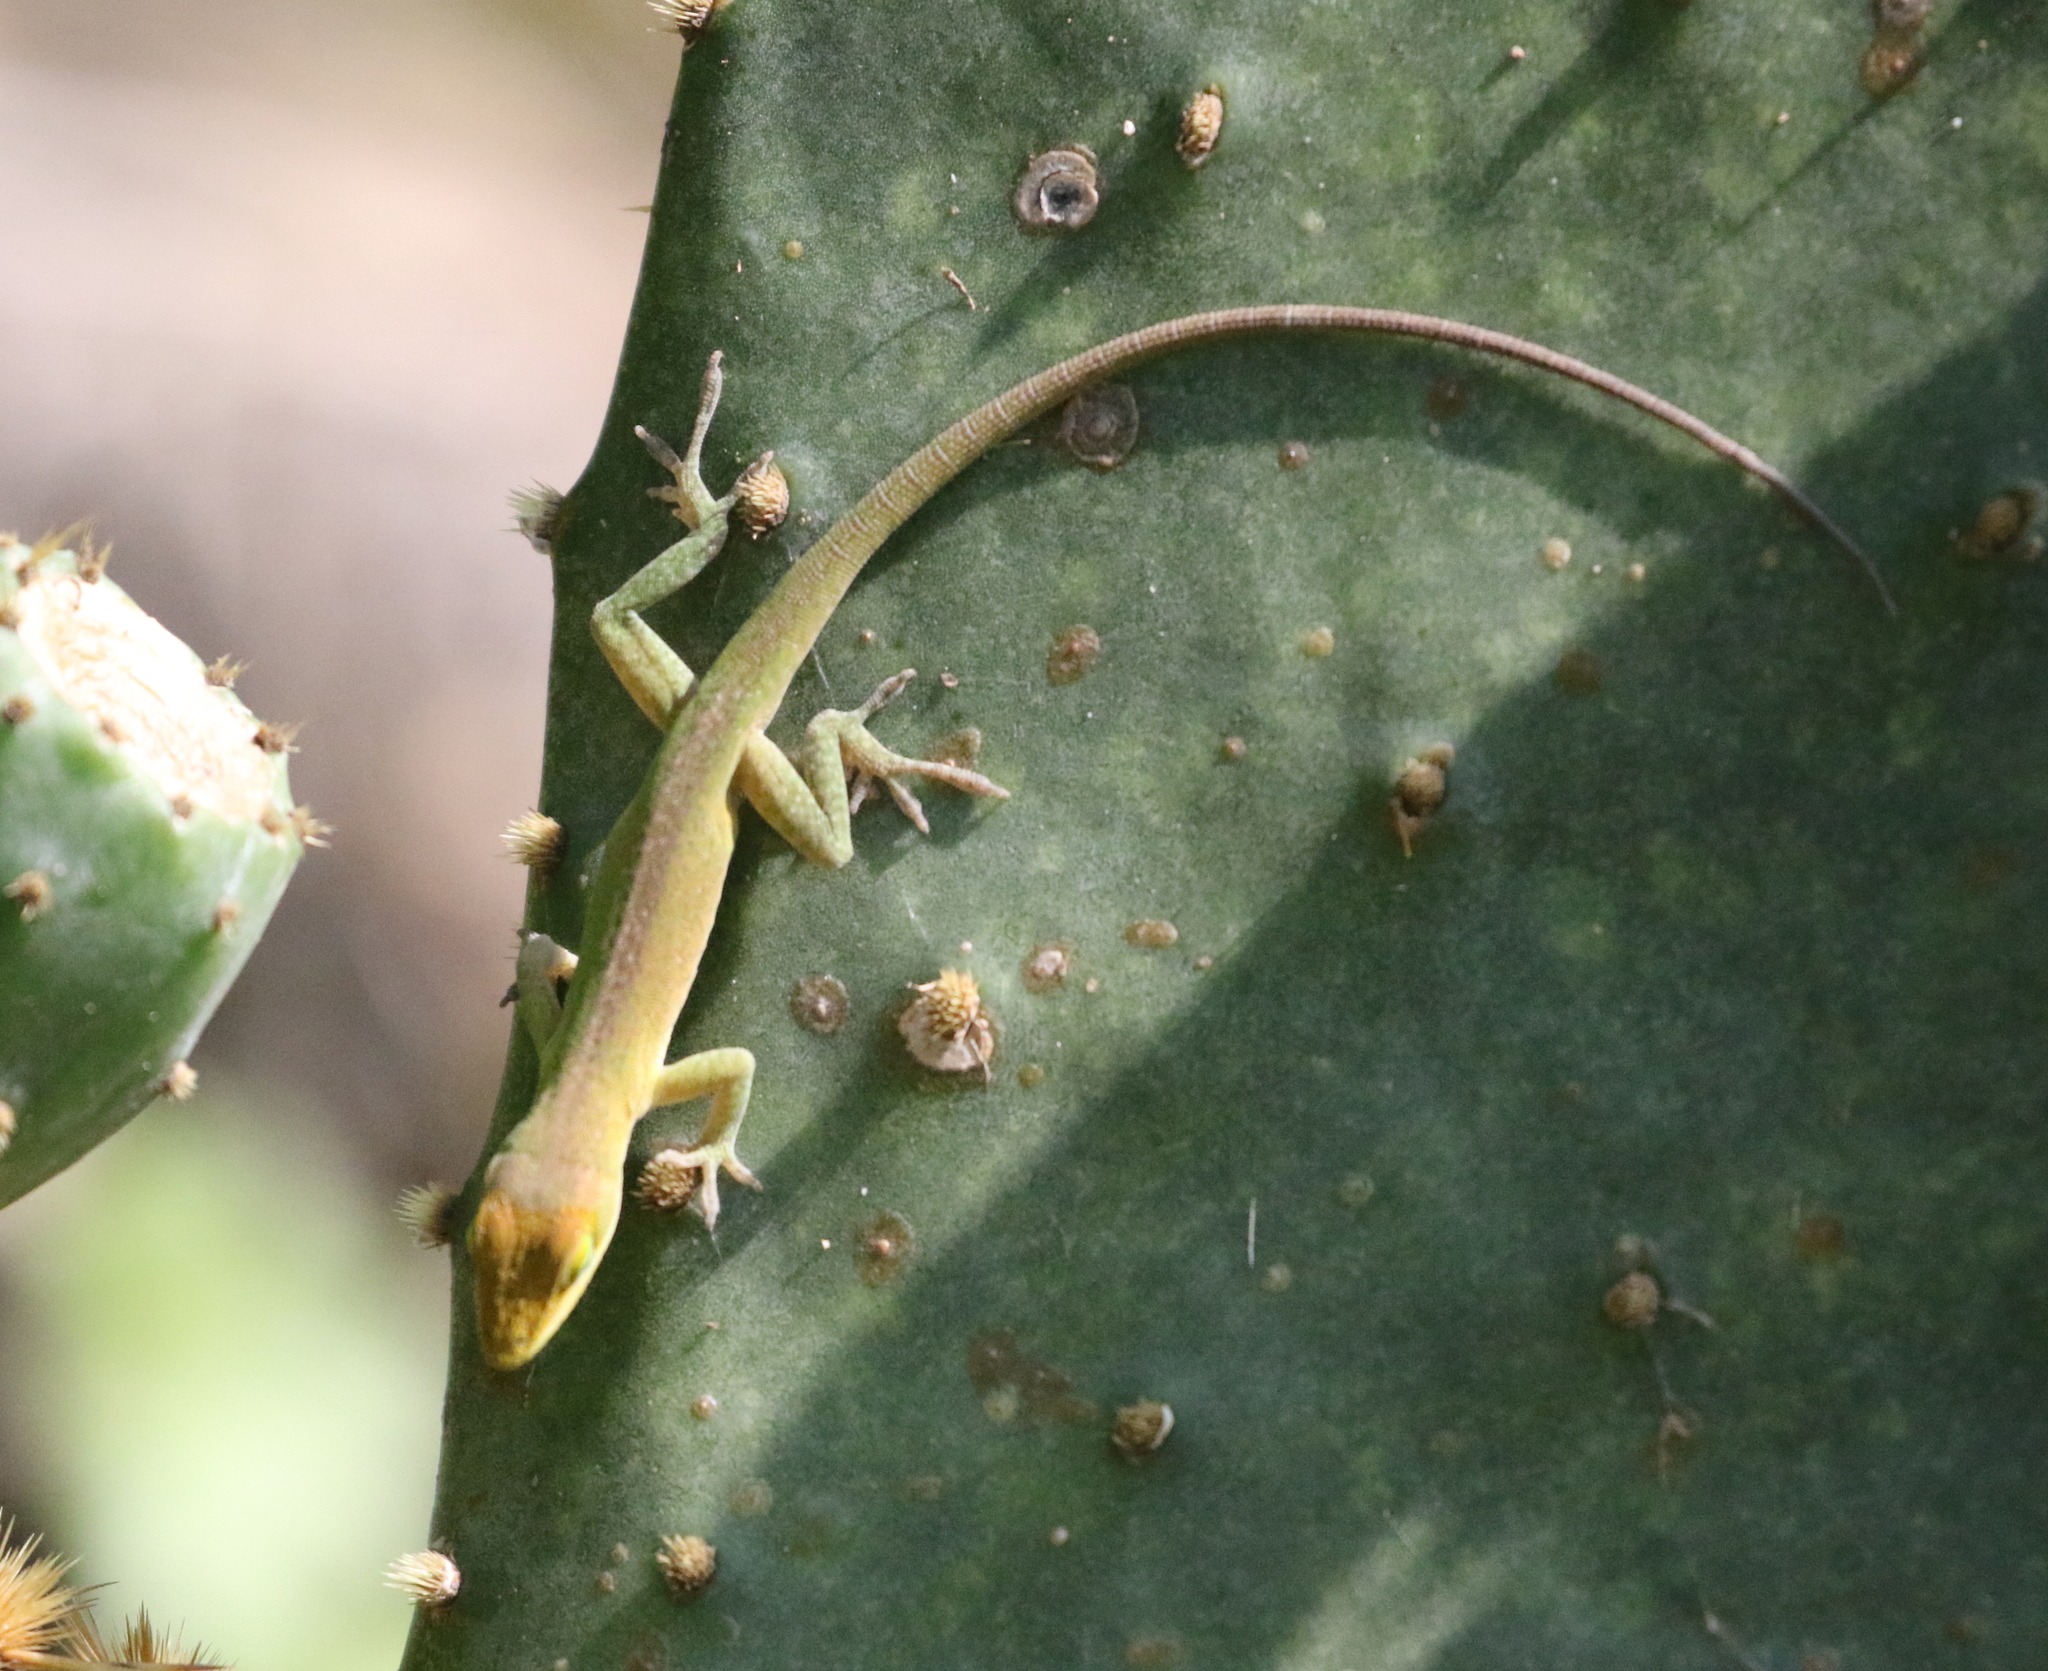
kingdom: Animalia
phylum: Chordata
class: Squamata
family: Dactyloidae
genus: Anolis
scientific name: Anolis carolinensis
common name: Green anole
